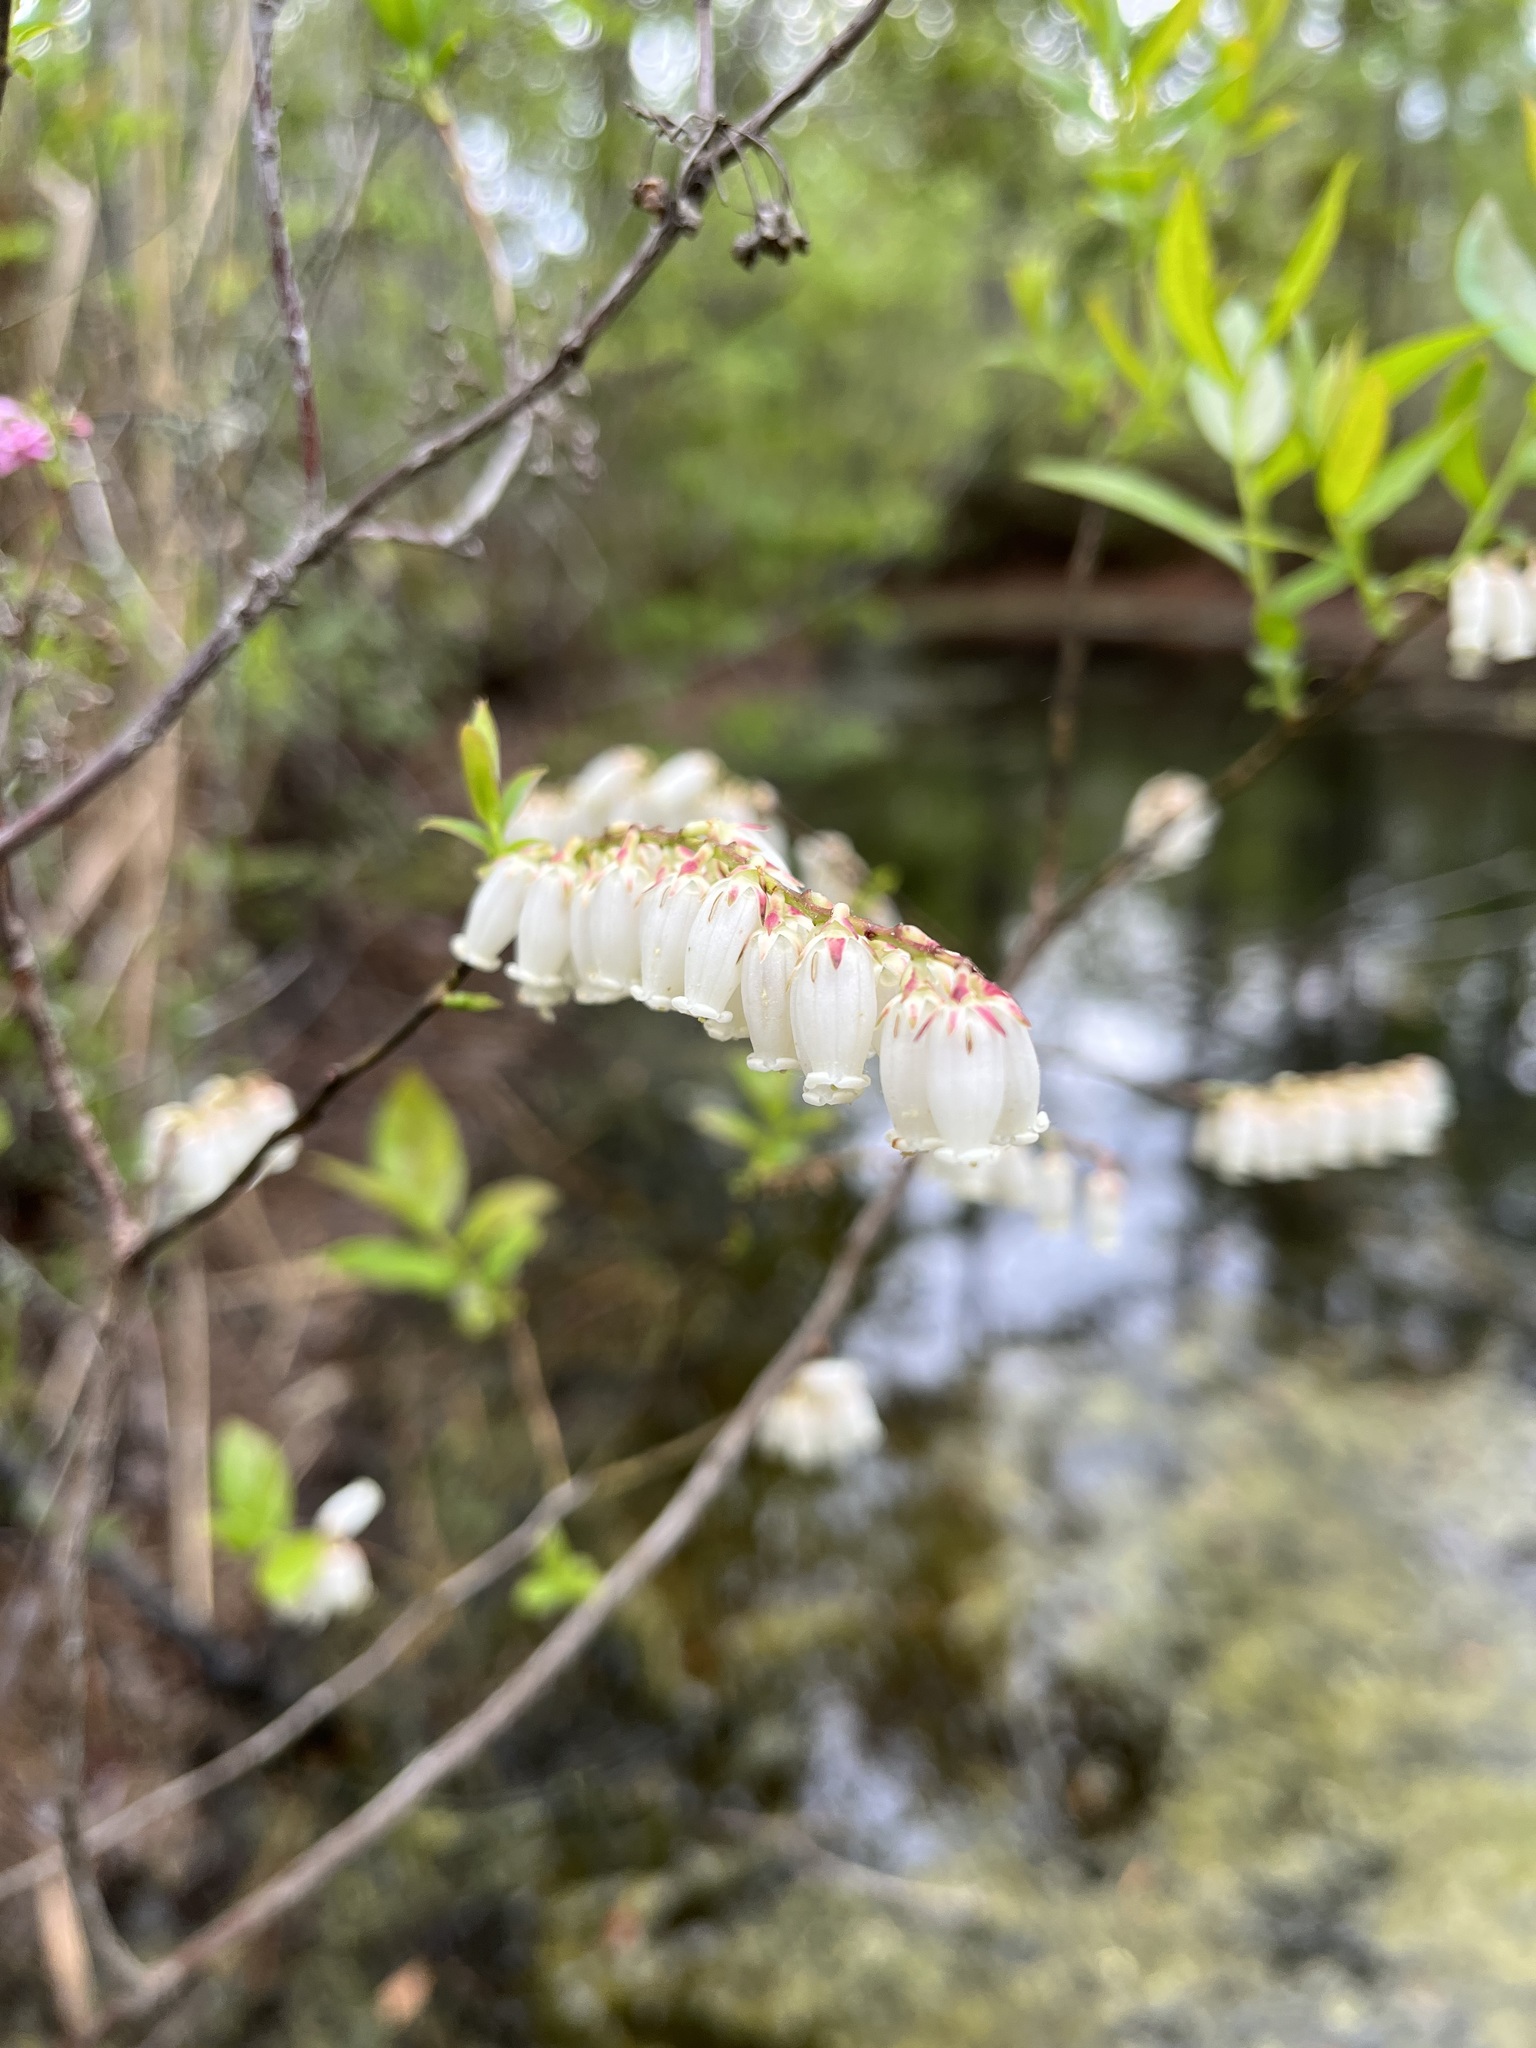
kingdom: Plantae
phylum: Tracheophyta
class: Magnoliopsida
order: Ericales
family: Ericaceae
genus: Eubotrys
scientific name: Eubotrys racemosa
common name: Fetterbush
